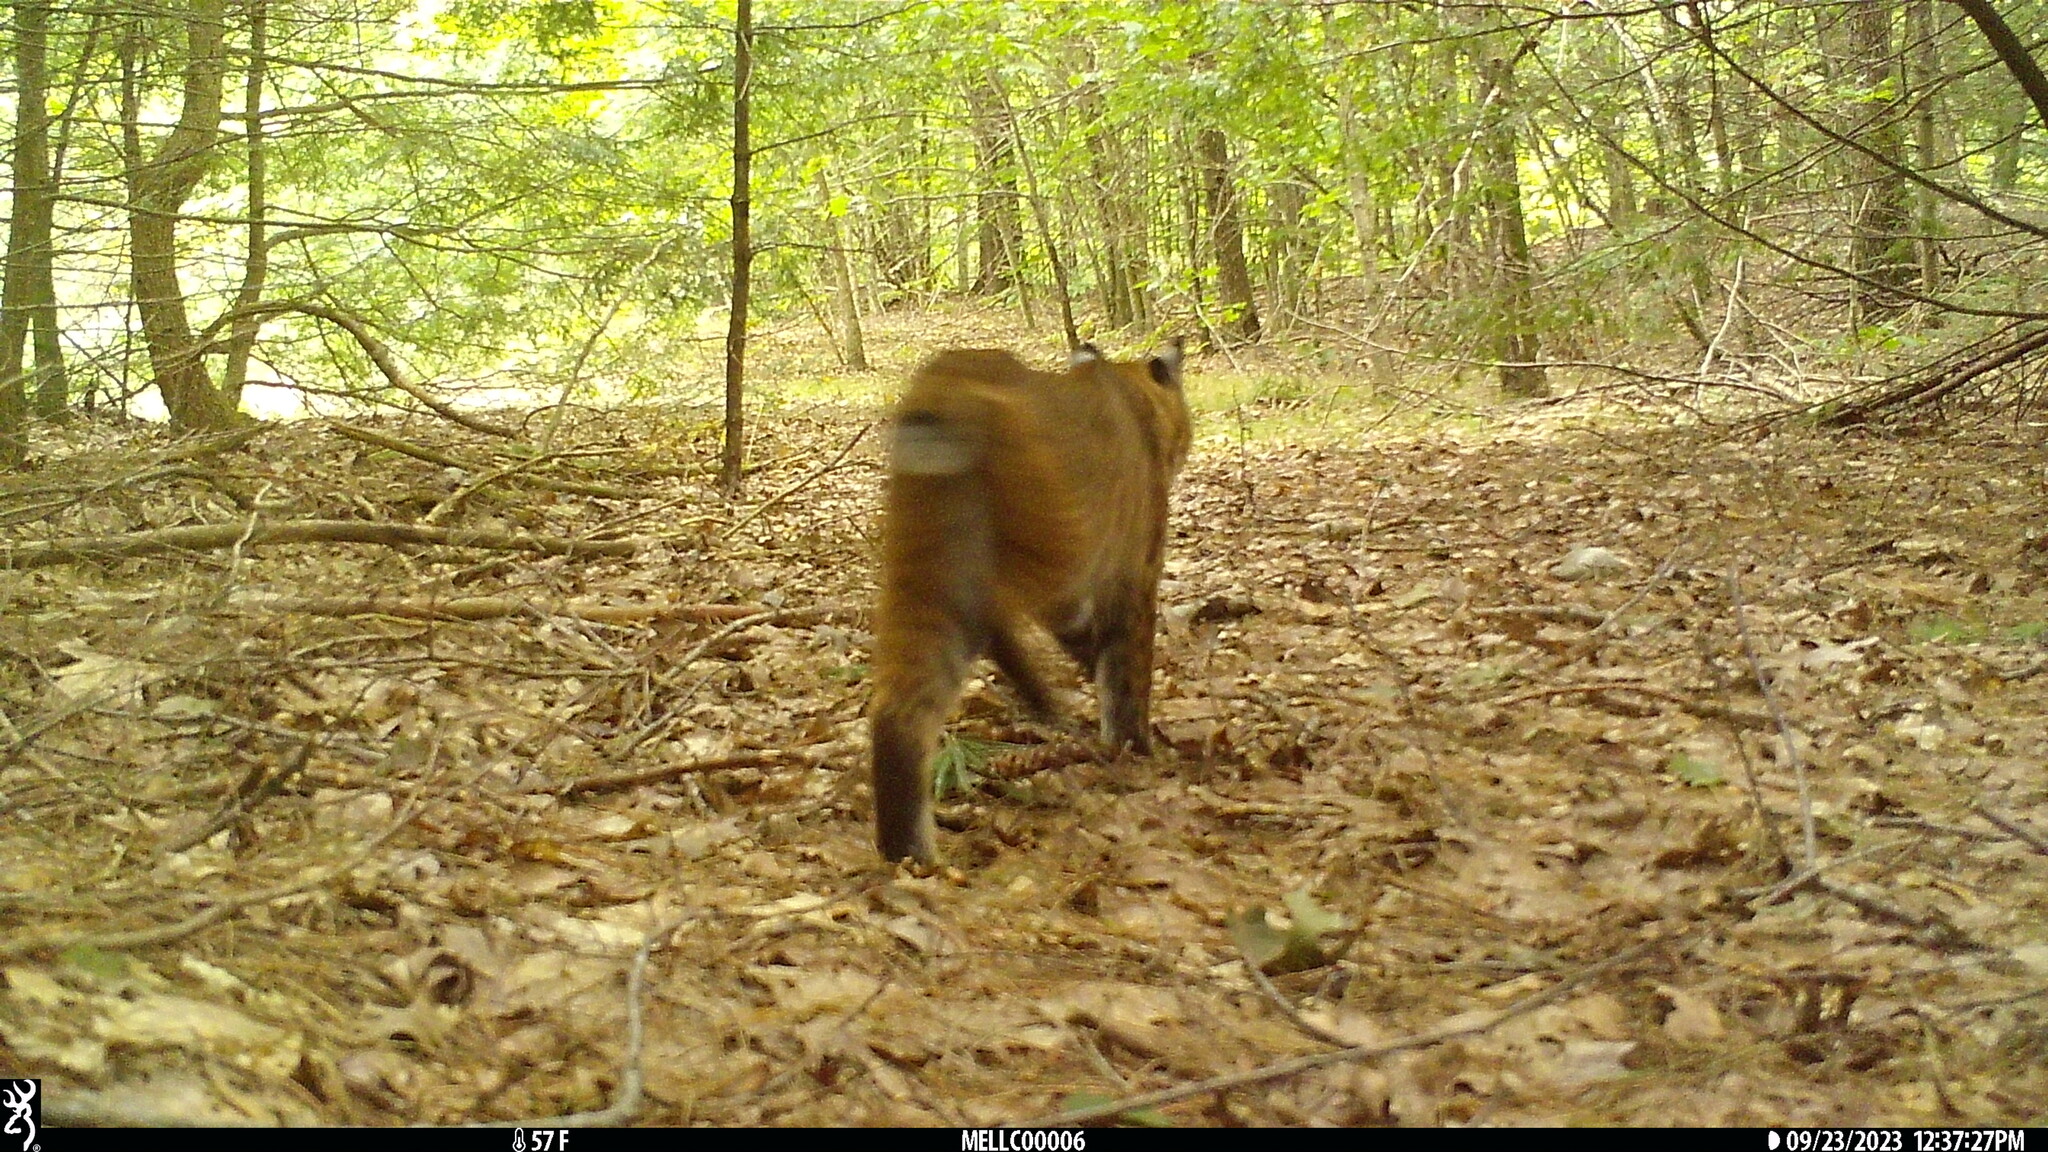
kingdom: Animalia
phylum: Chordata
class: Mammalia
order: Carnivora
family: Felidae
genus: Lynx
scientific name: Lynx rufus
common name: Bobcat
